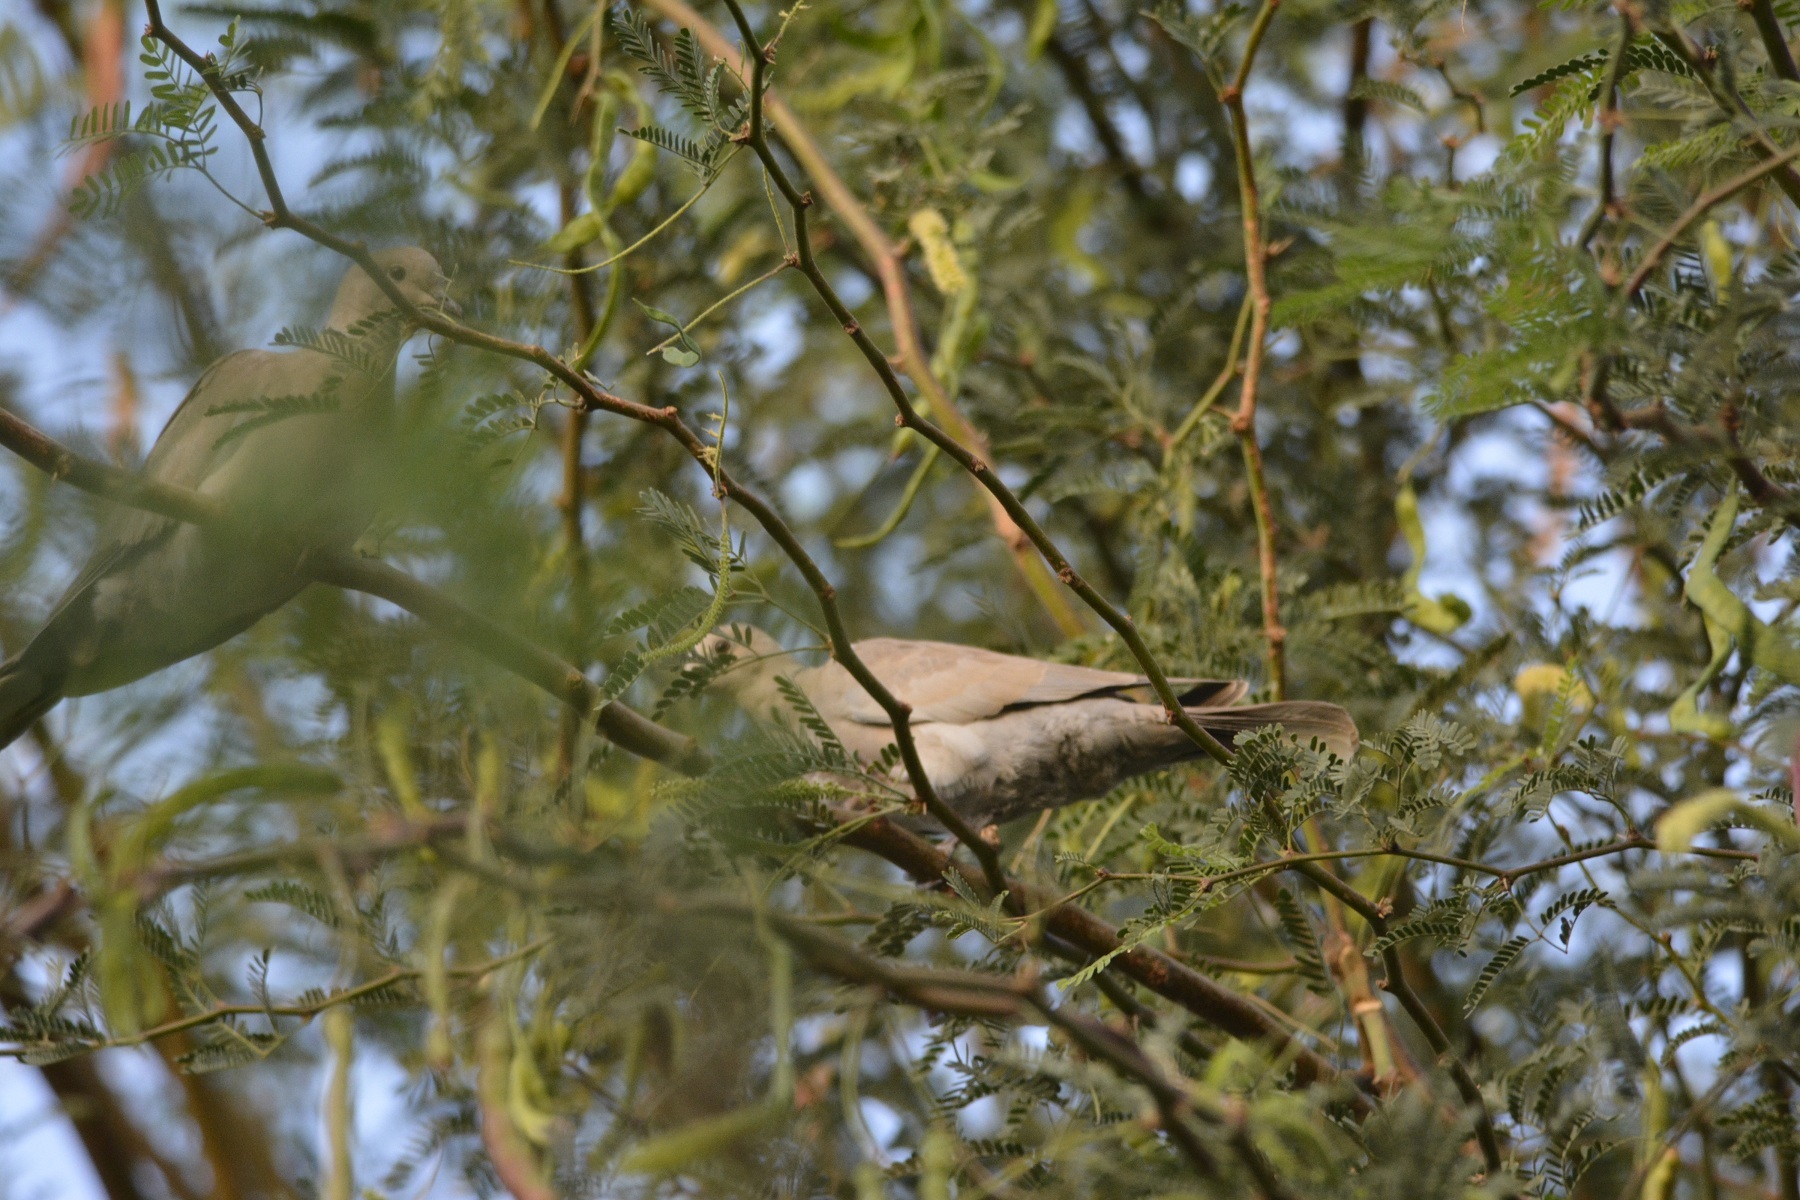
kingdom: Animalia
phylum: Chordata
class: Aves
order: Columbiformes
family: Columbidae
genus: Streptopelia
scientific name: Streptopelia decaocto
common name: Eurasian collared dove
